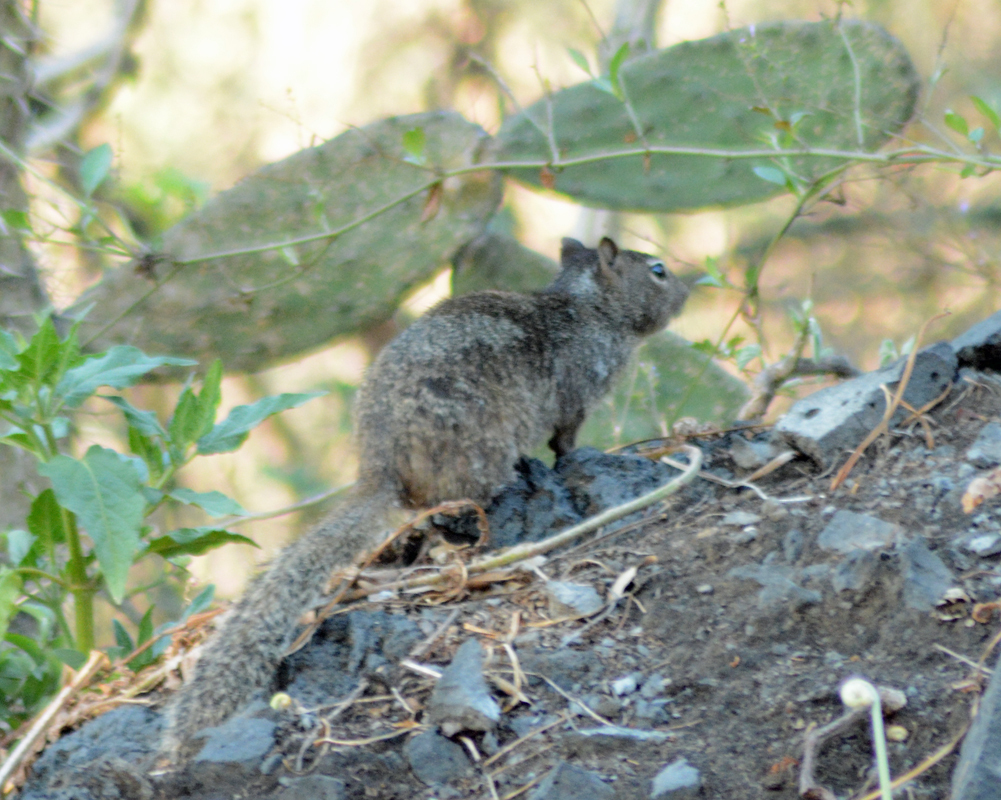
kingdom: Animalia
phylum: Chordata
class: Mammalia
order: Rodentia
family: Sciuridae
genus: Otospermophilus
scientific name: Otospermophilus variegatus
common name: Rock squirrel
